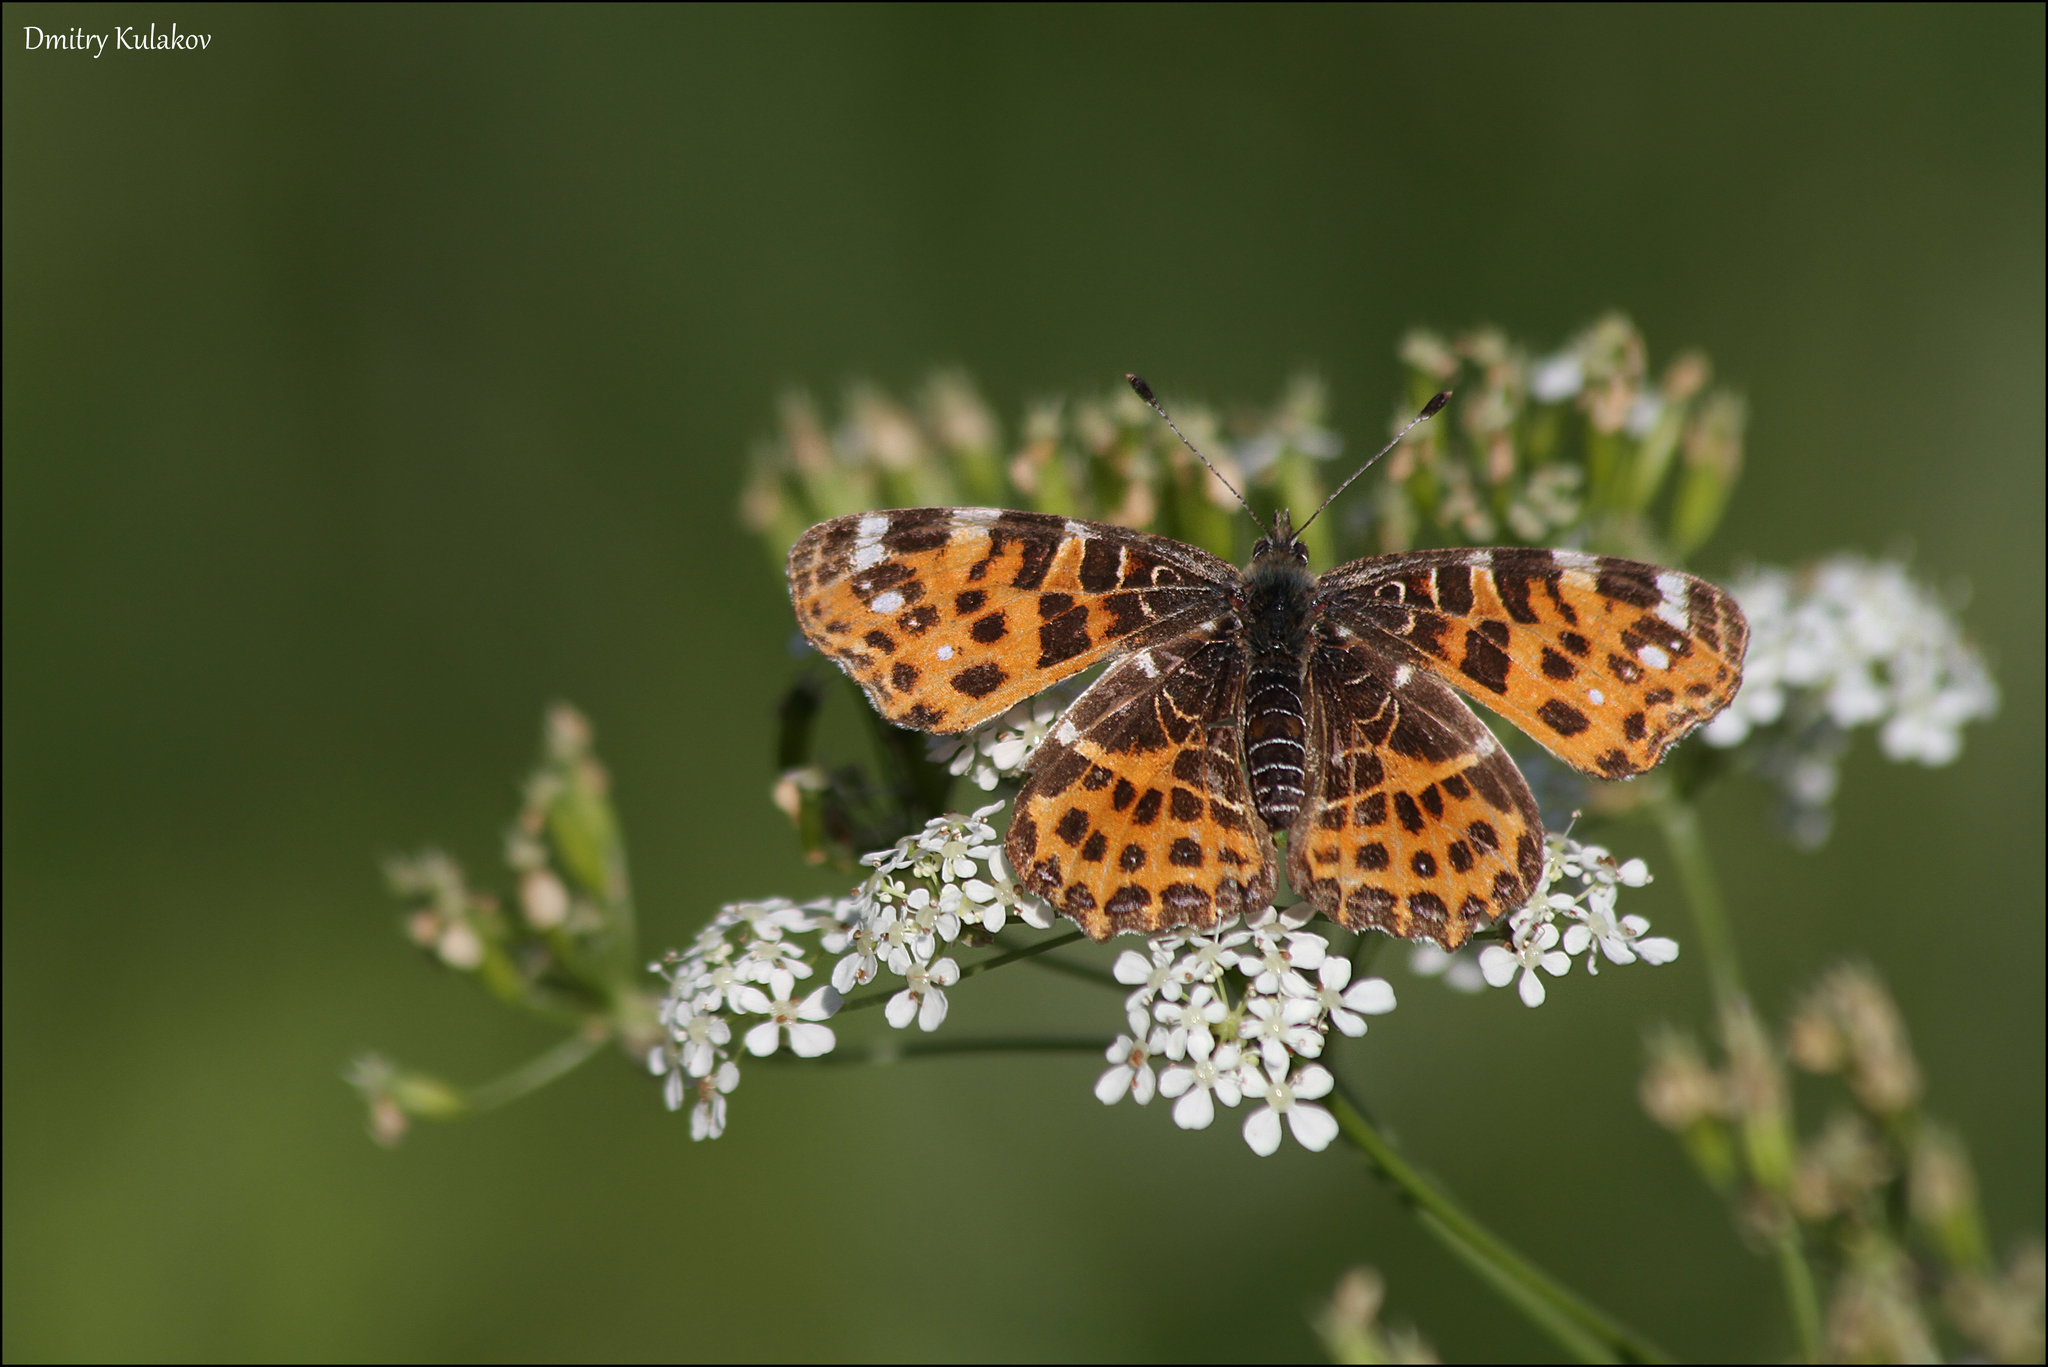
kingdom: Animalia
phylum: Arthropoda
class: Insecta
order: Lepidoptera
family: Nymphalidae
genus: Araschnia
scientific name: Araschnia levana
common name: Map butterfly
